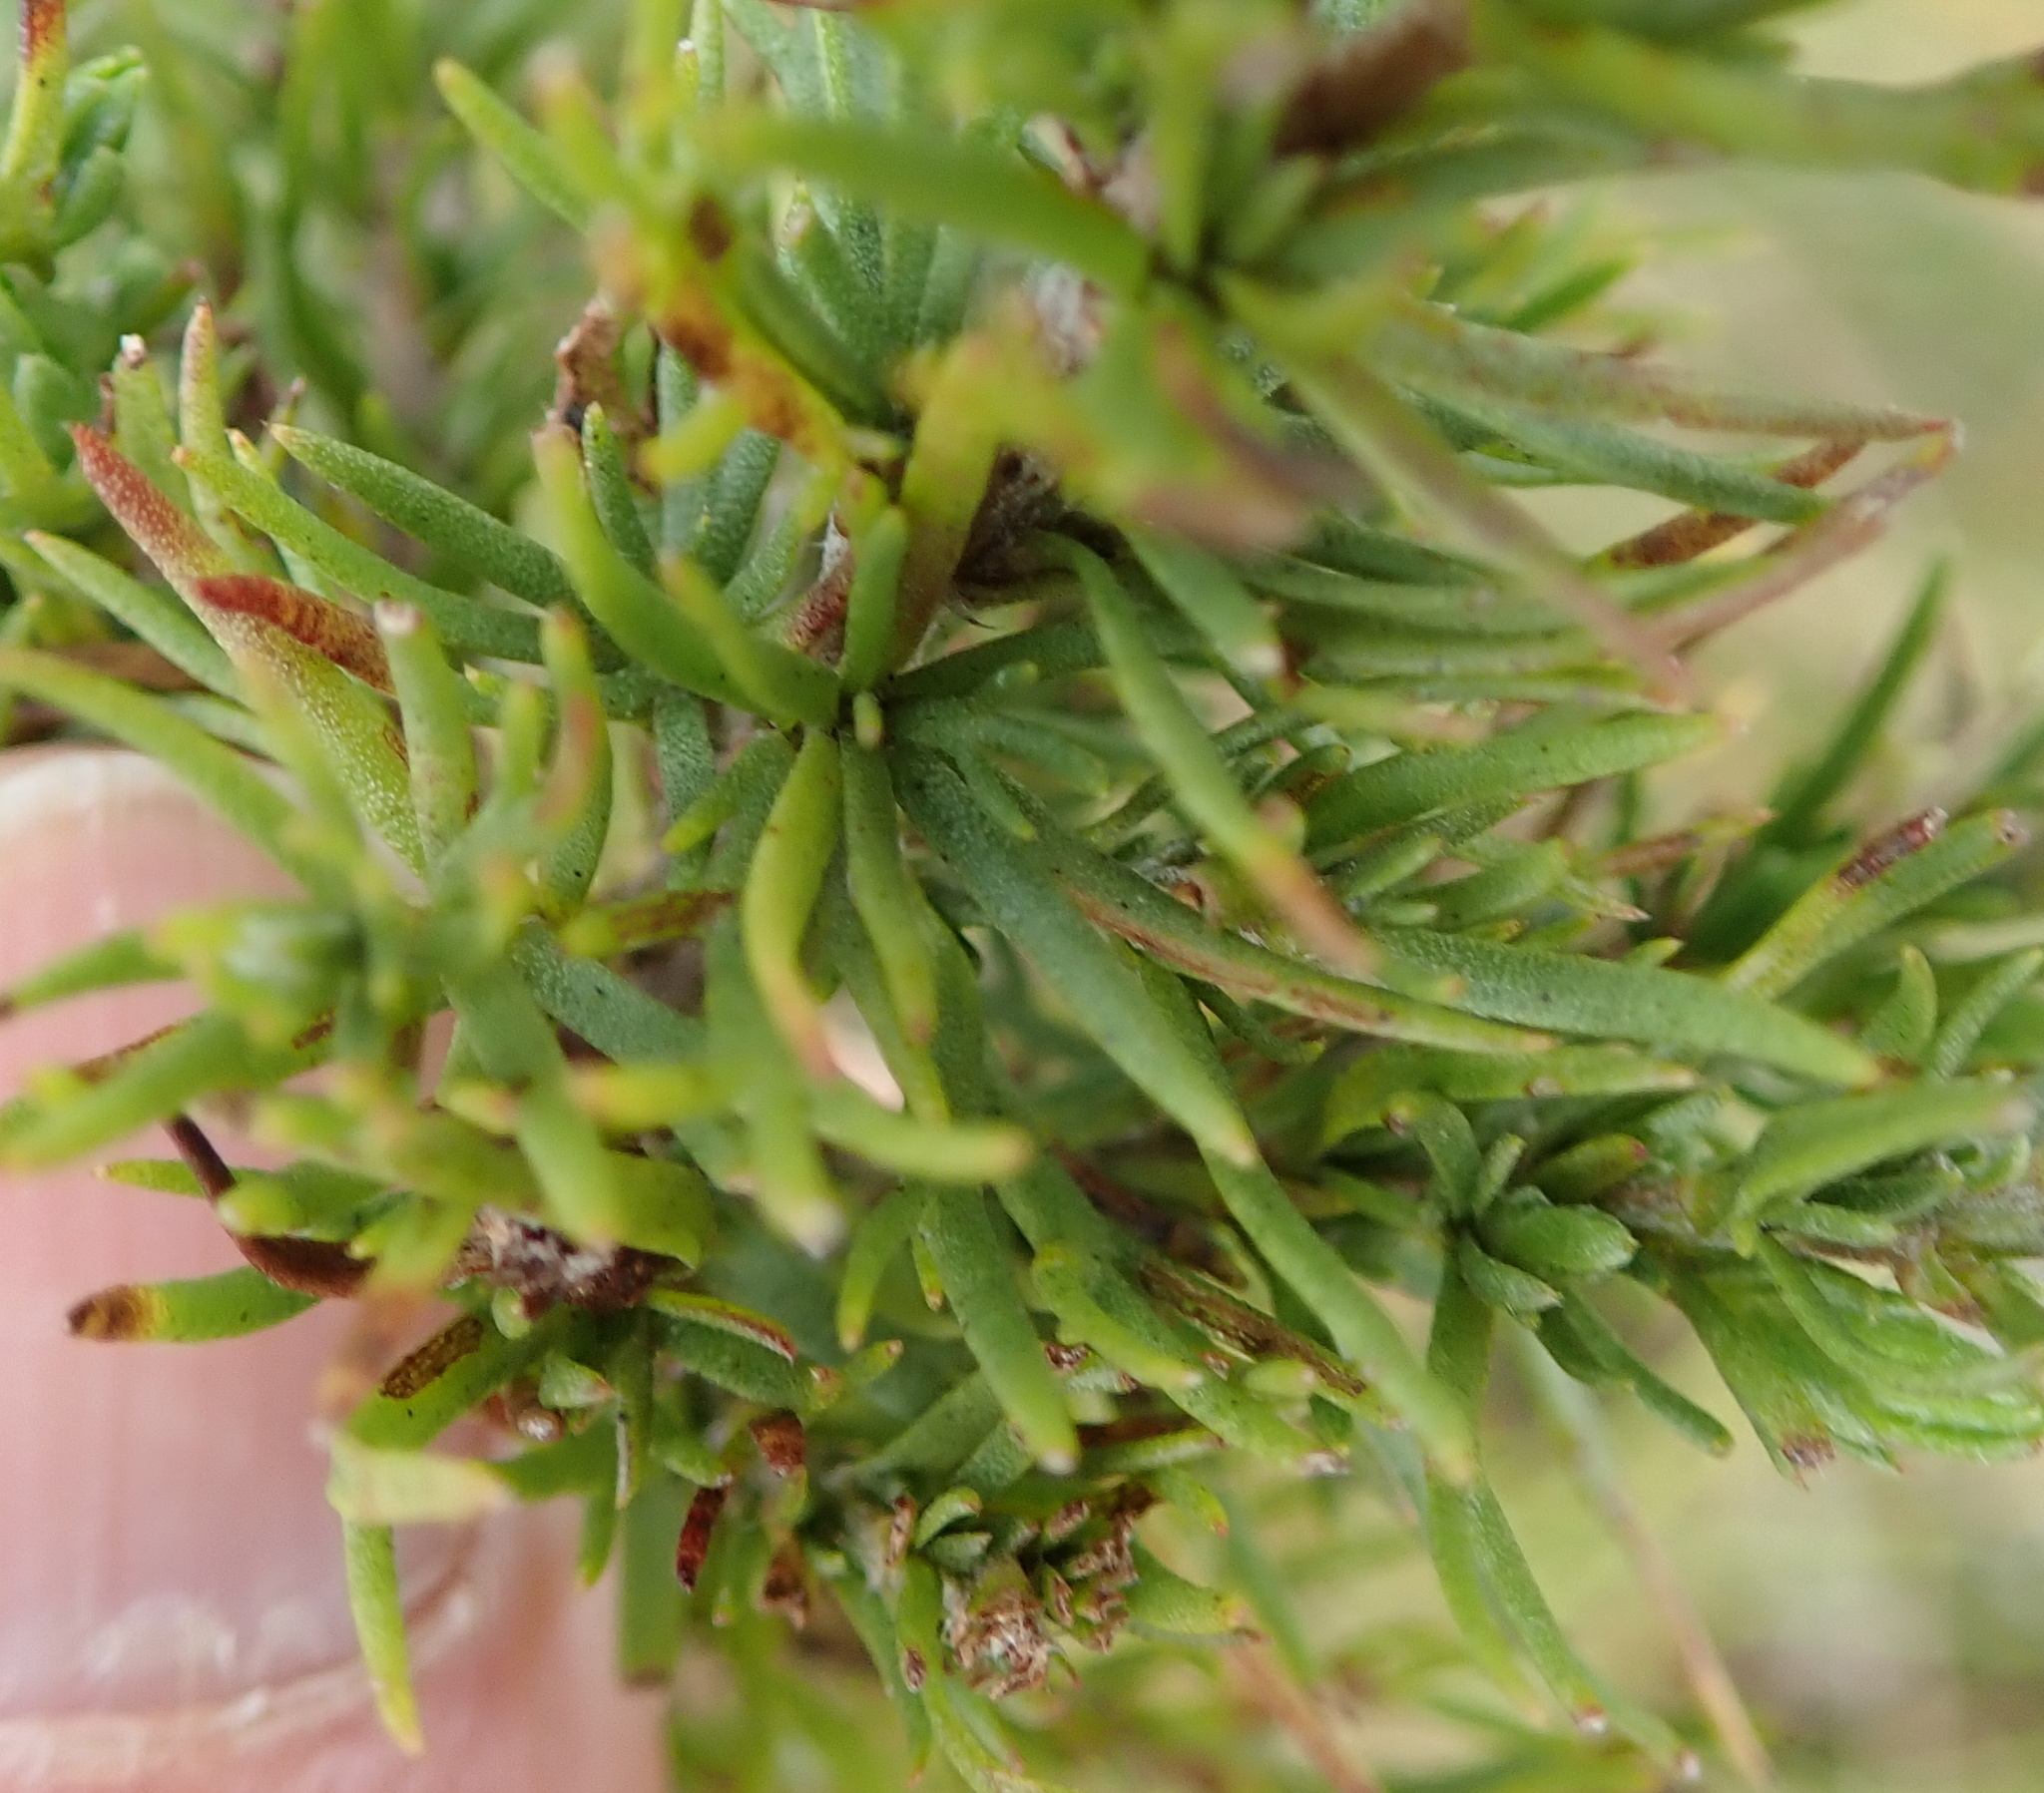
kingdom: Plantae
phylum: Tracheophyta
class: Magnoliopsida
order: Asterales
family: Asteraceae
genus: Phymaspermum
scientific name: Phymaspermum acerosum
